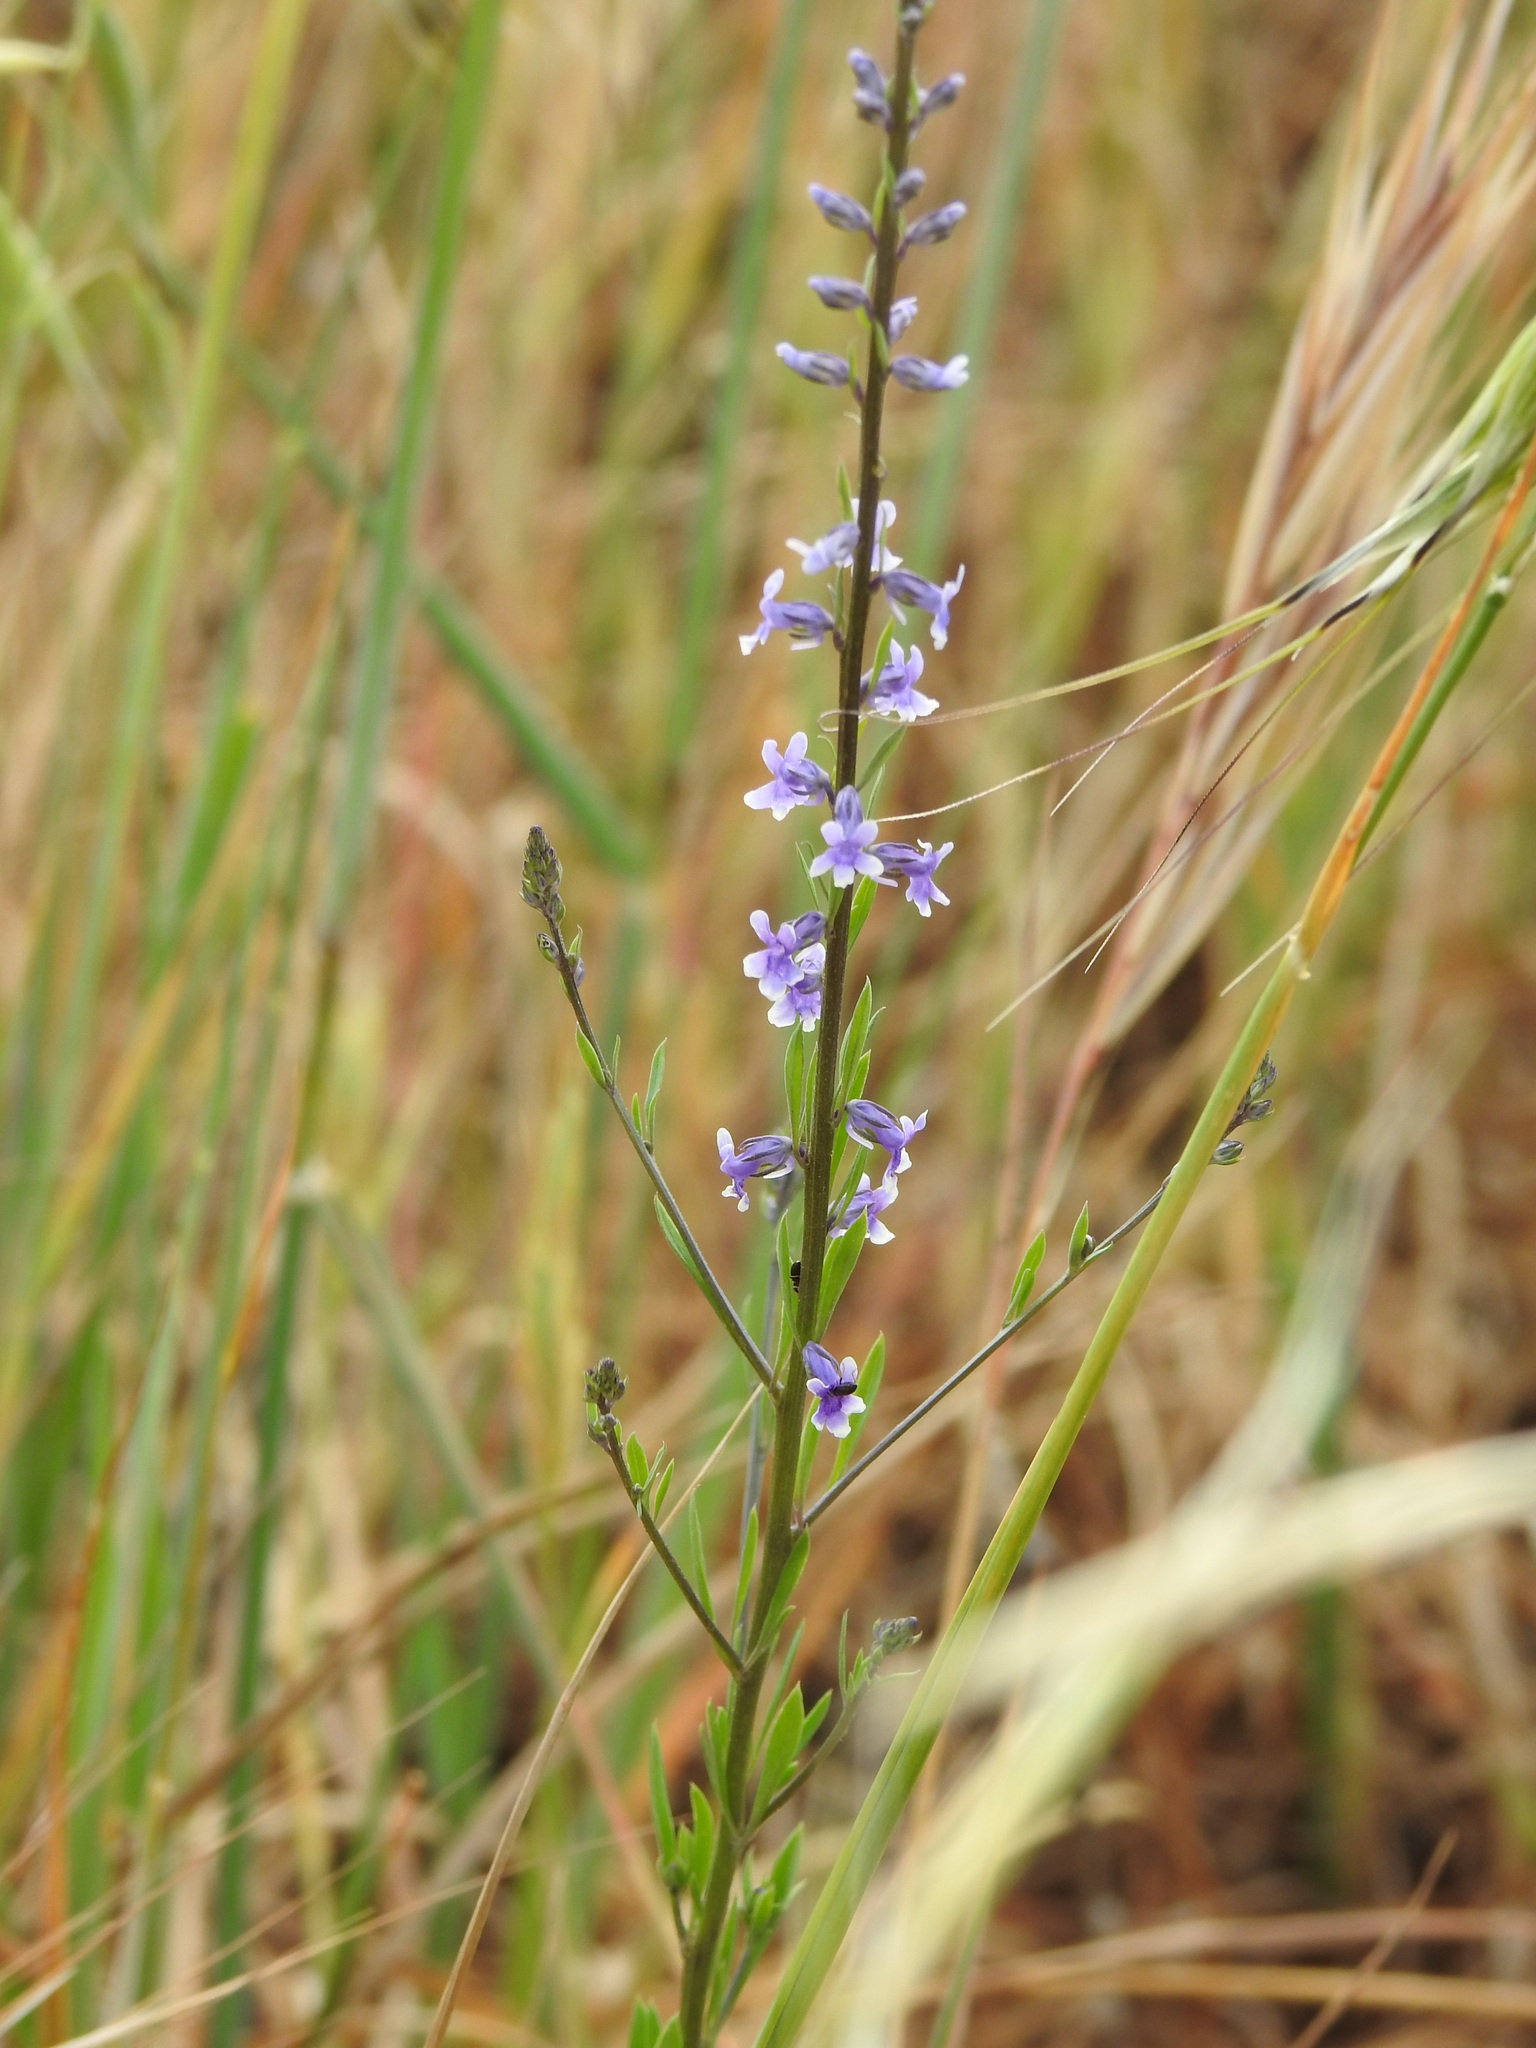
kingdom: Plantae
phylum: Tracheophyta
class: Magnoliopsida
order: Lamiales
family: Plantaginaceae
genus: Anarrhinum
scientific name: Anarrhinum bellidifolium
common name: Daisy-leaved toadflax
